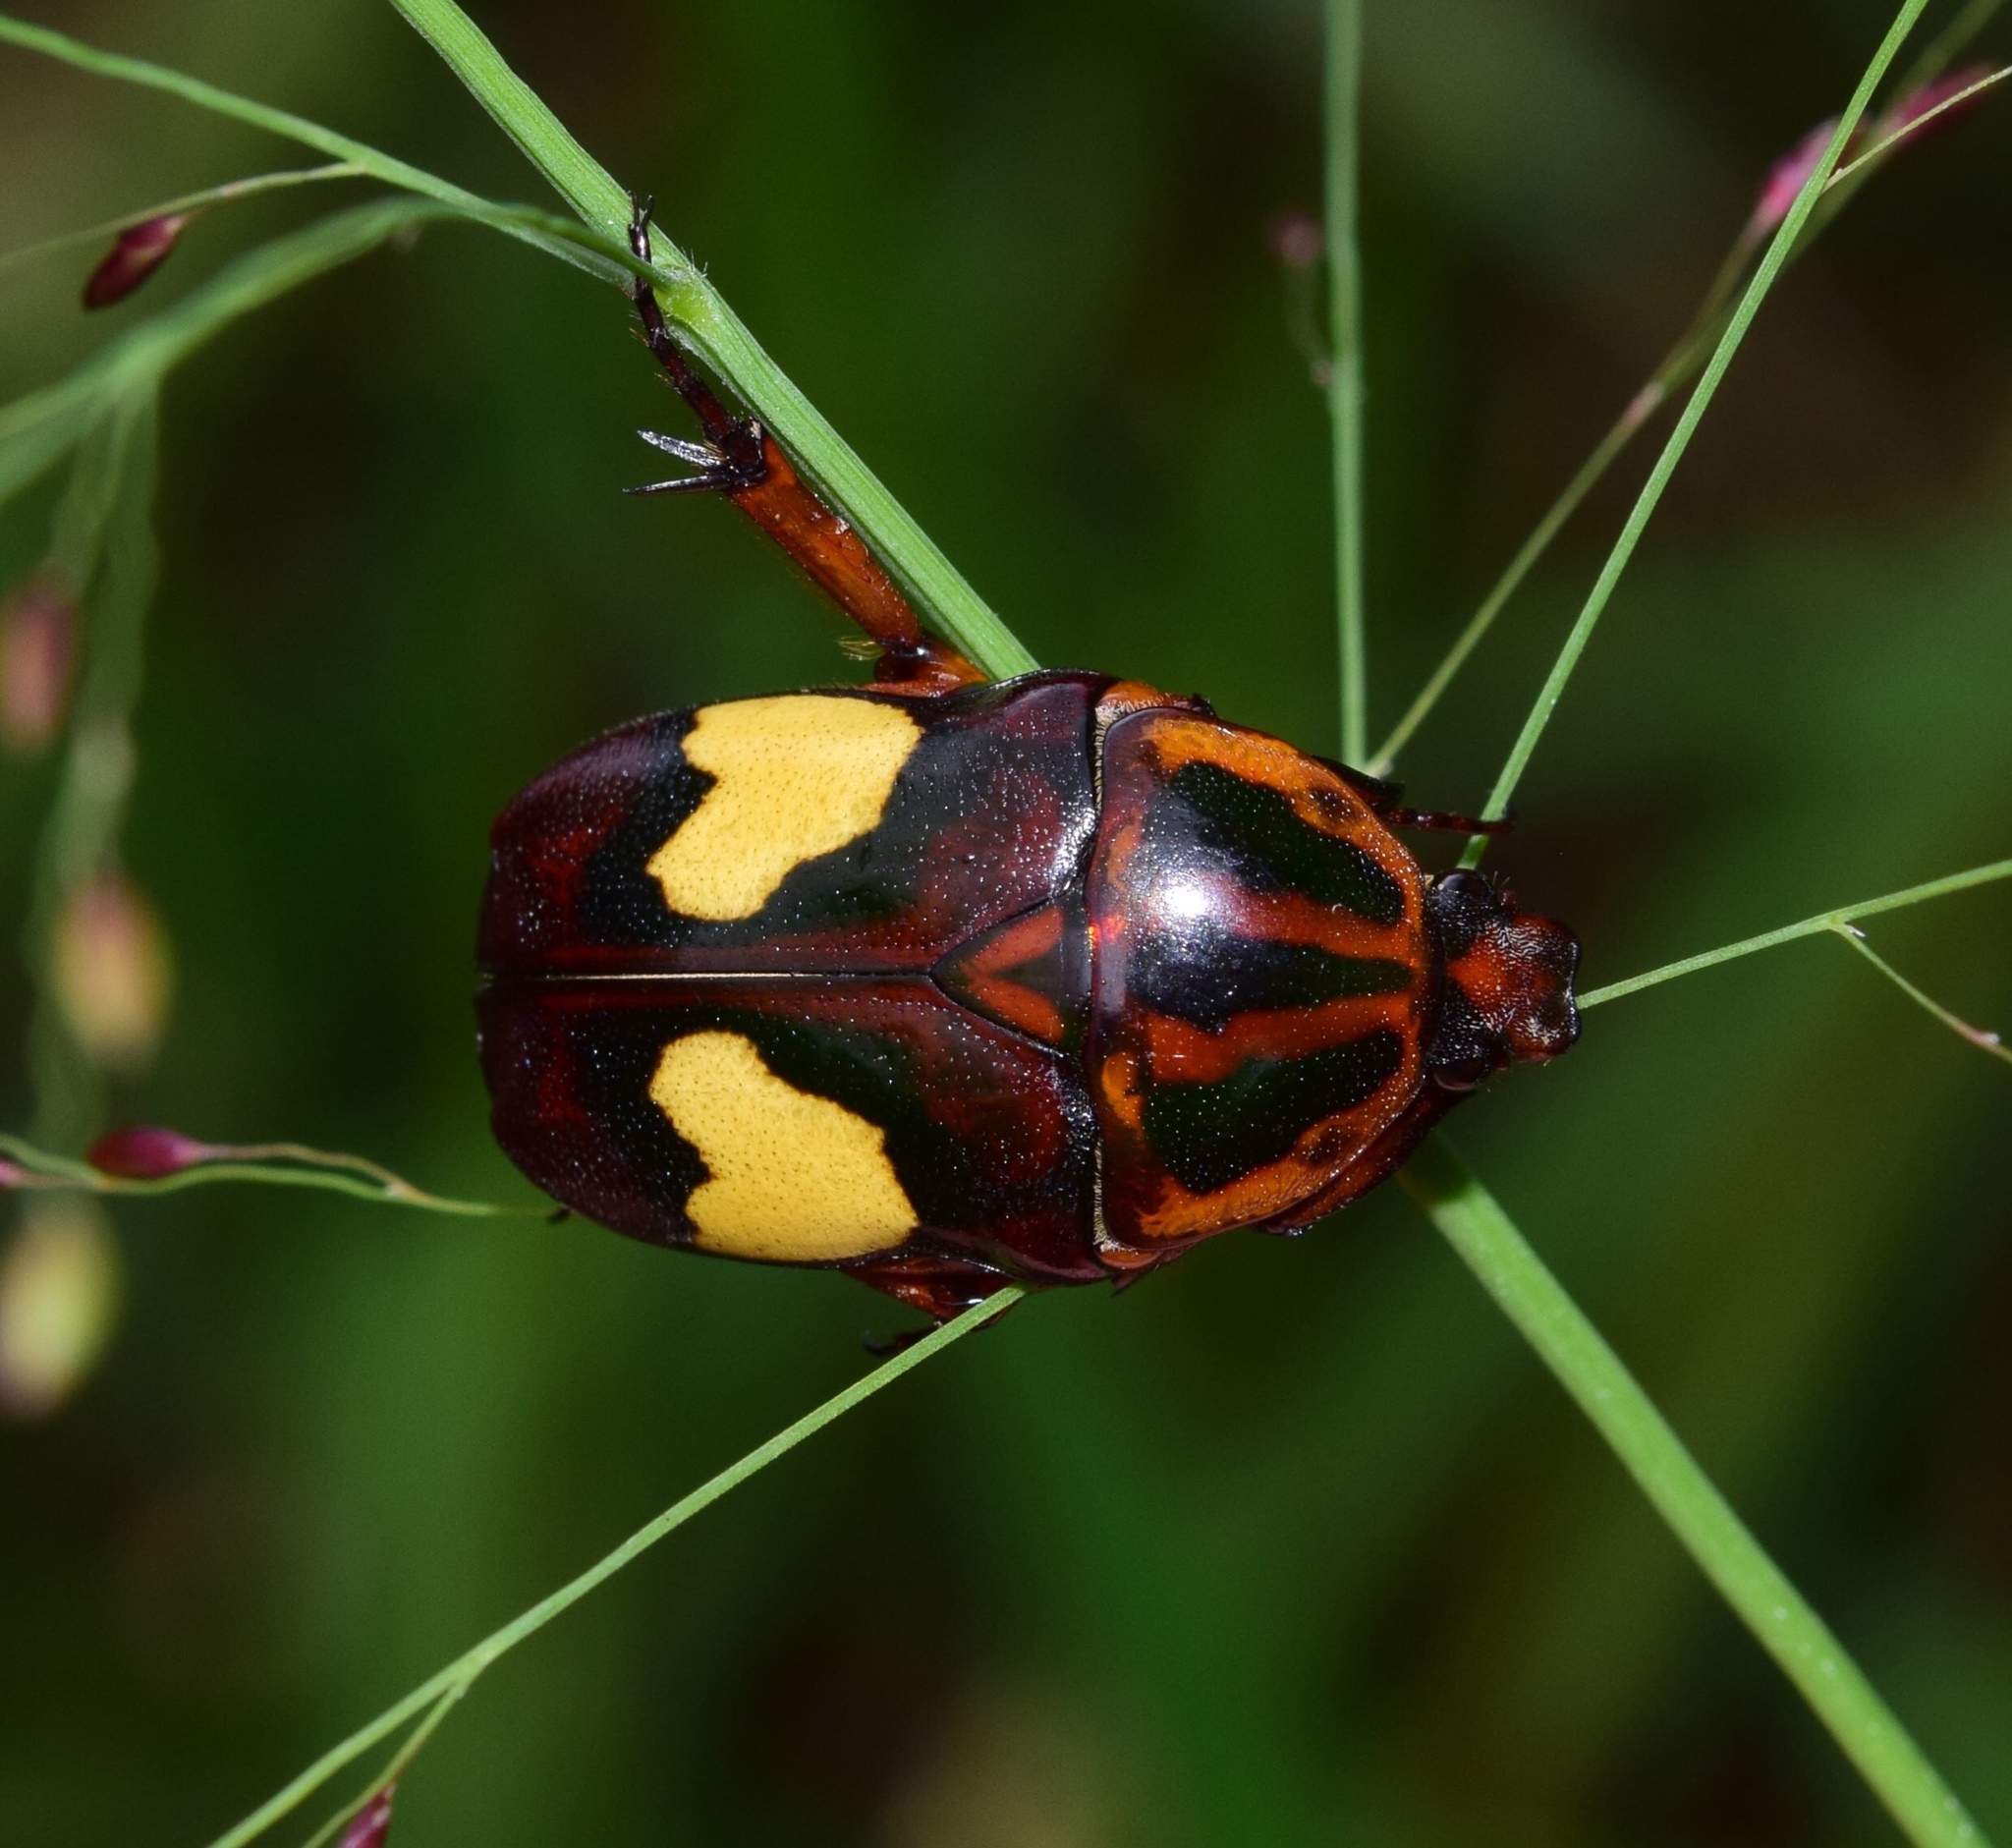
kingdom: Animalia
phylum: Arthropoda
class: Insecta
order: Coleoptera
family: Scarabaeidae
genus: Pedinorrhina
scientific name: Pedinorrhina
